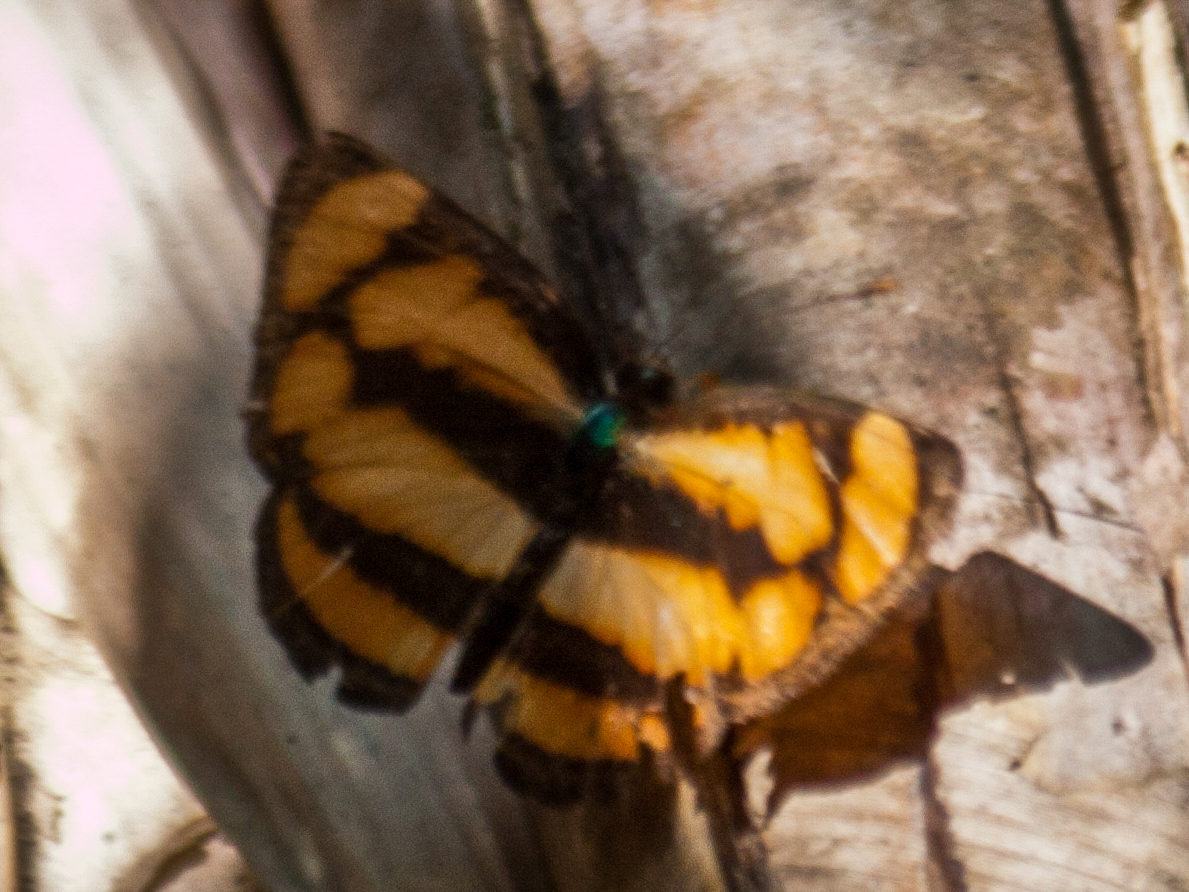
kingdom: Animalia
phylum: Arthropoda
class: Insecta
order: Lepidoptera
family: Nymphalidae
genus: Pantoporia
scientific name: Pantoporia paraka
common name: Perak lascar
